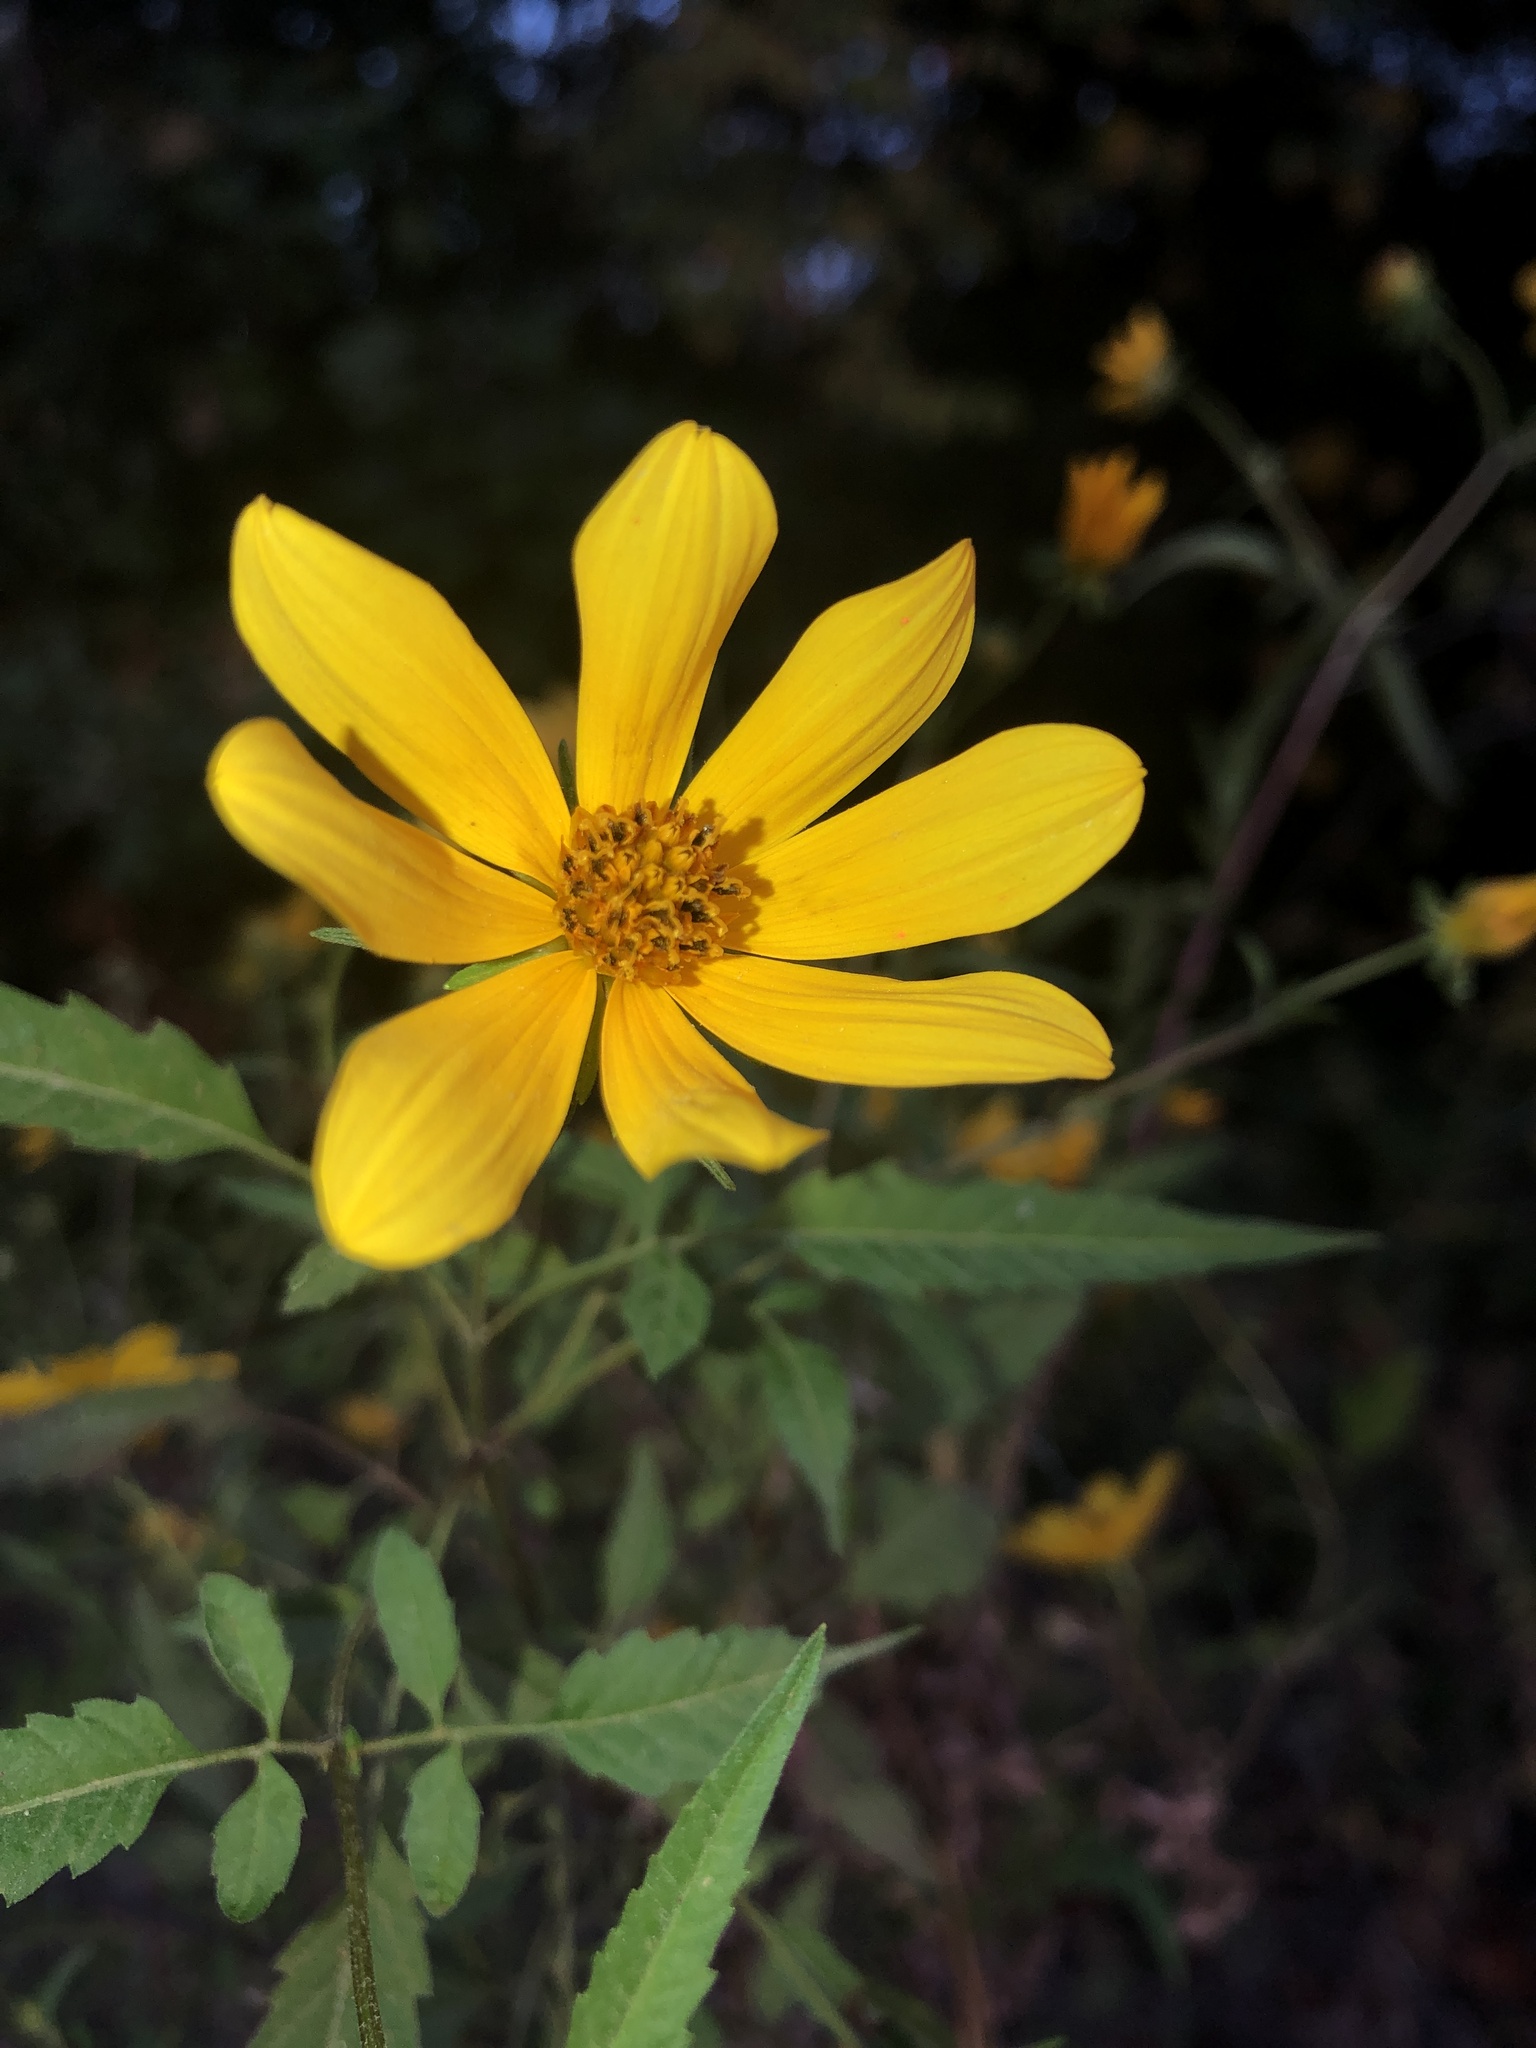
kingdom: Plantae
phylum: Tracheophyta
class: Magnoliopsida
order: Asterales
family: Asteraceae
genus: Bidens
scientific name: Bidens aristosa
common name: Western tickseed
